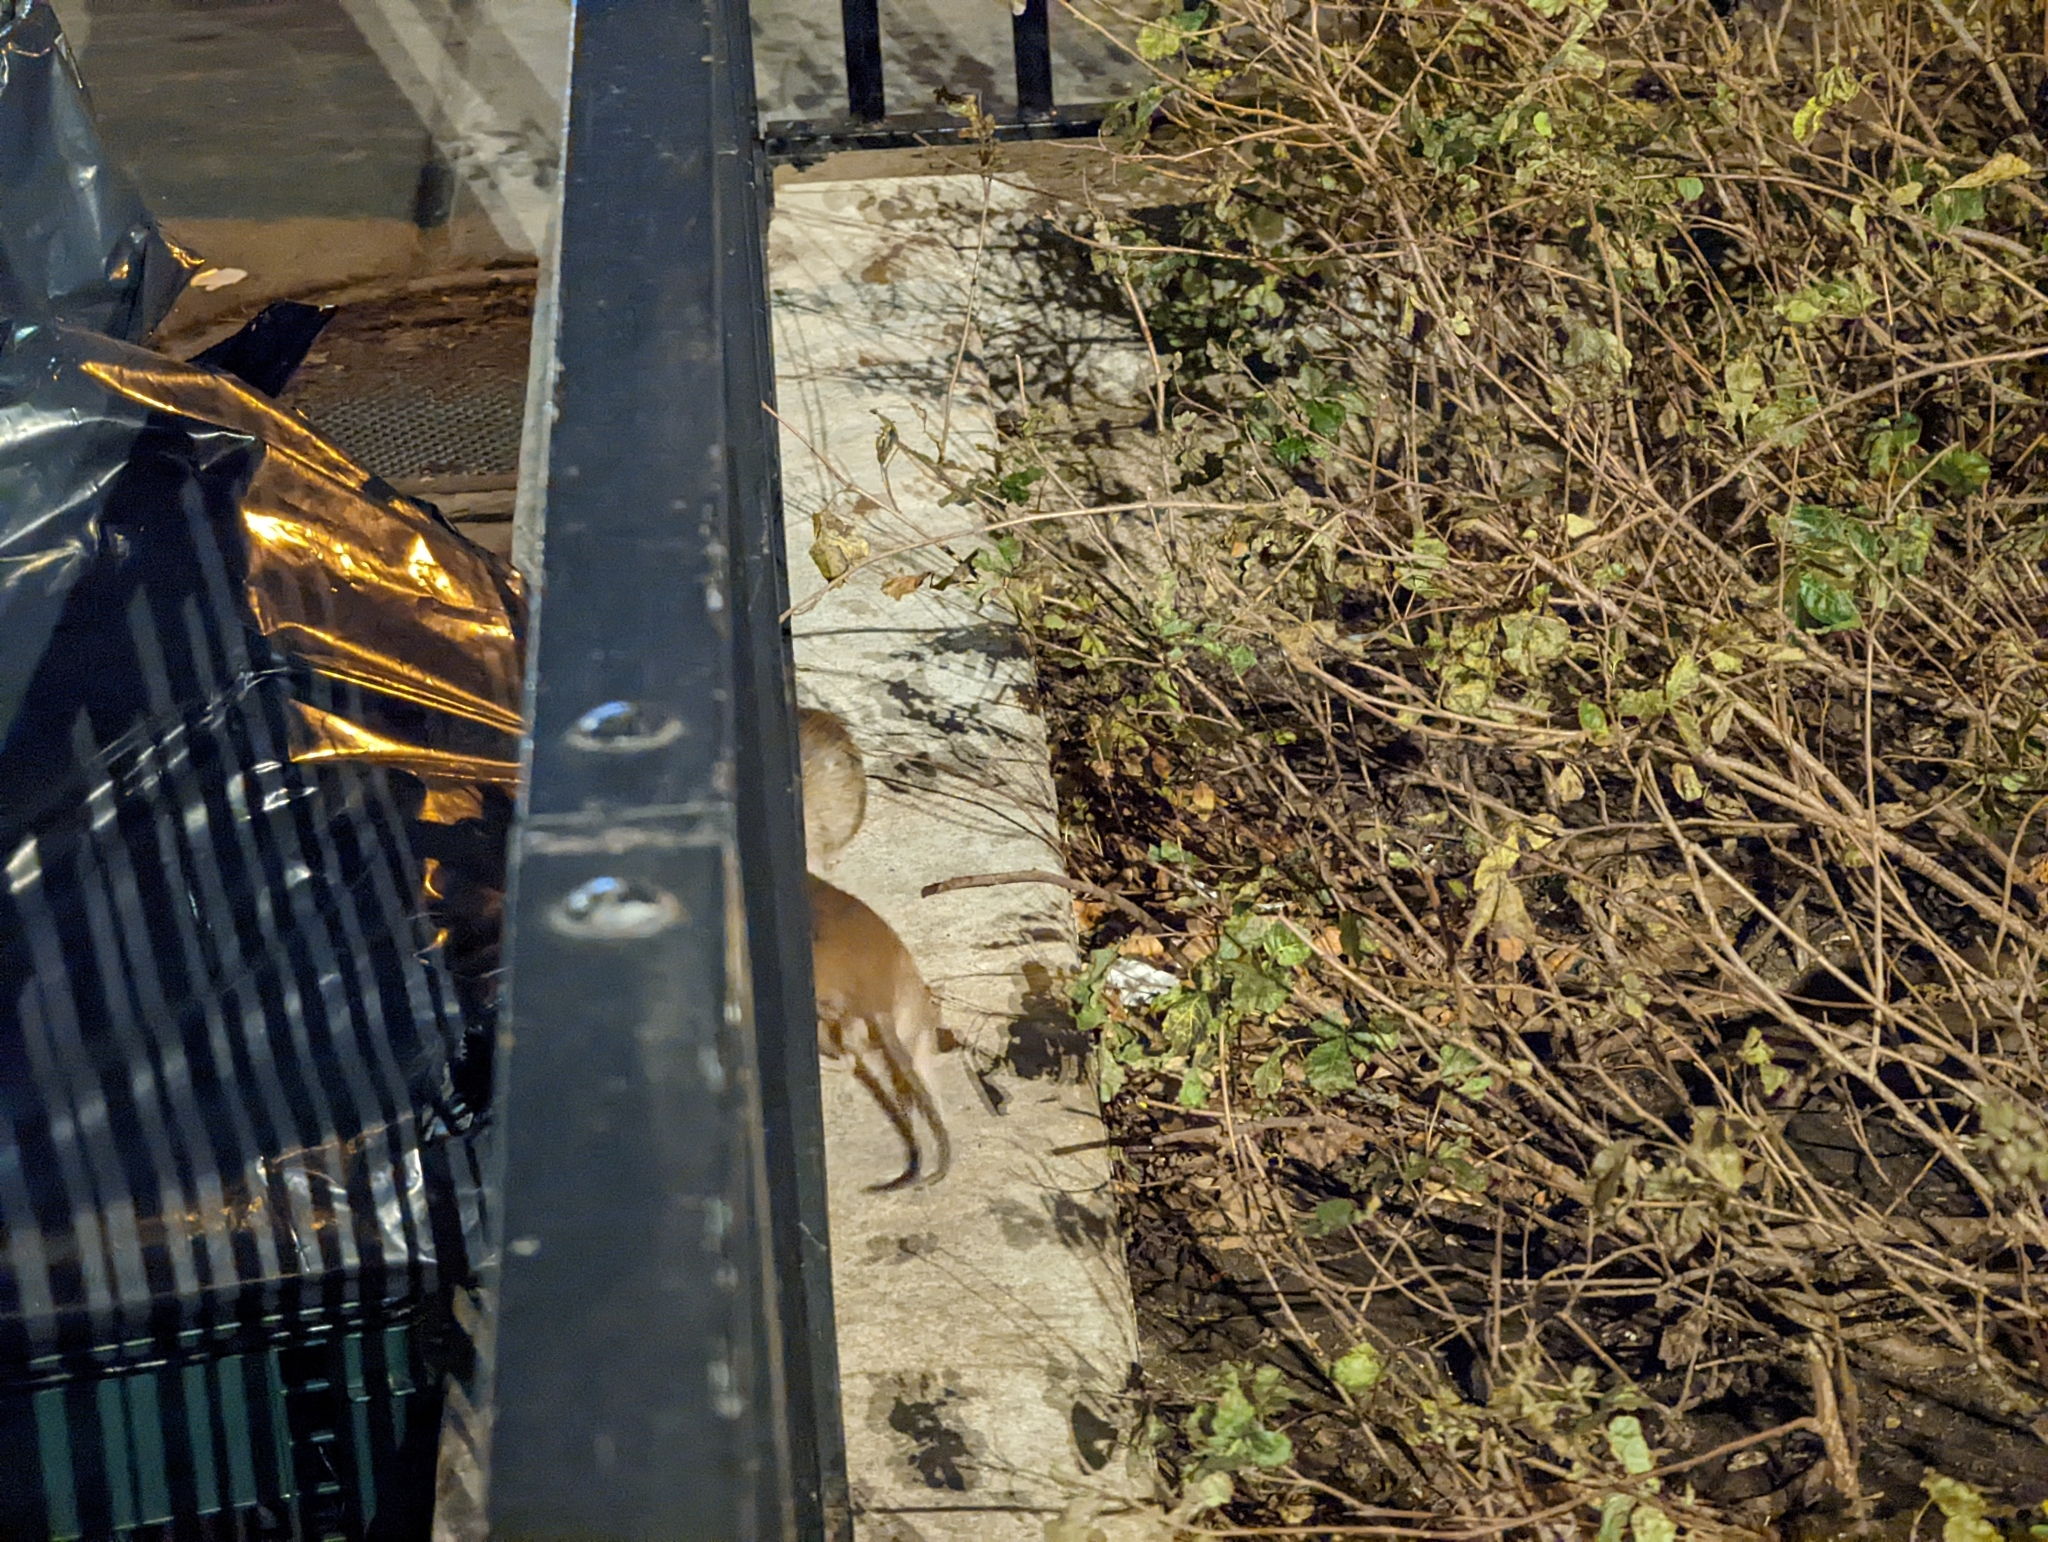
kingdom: Animalia
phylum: Chordata
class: Mammalia
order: Rodentia
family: Muridae
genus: Rattus
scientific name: Rattus norvegicus
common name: Brown rat
